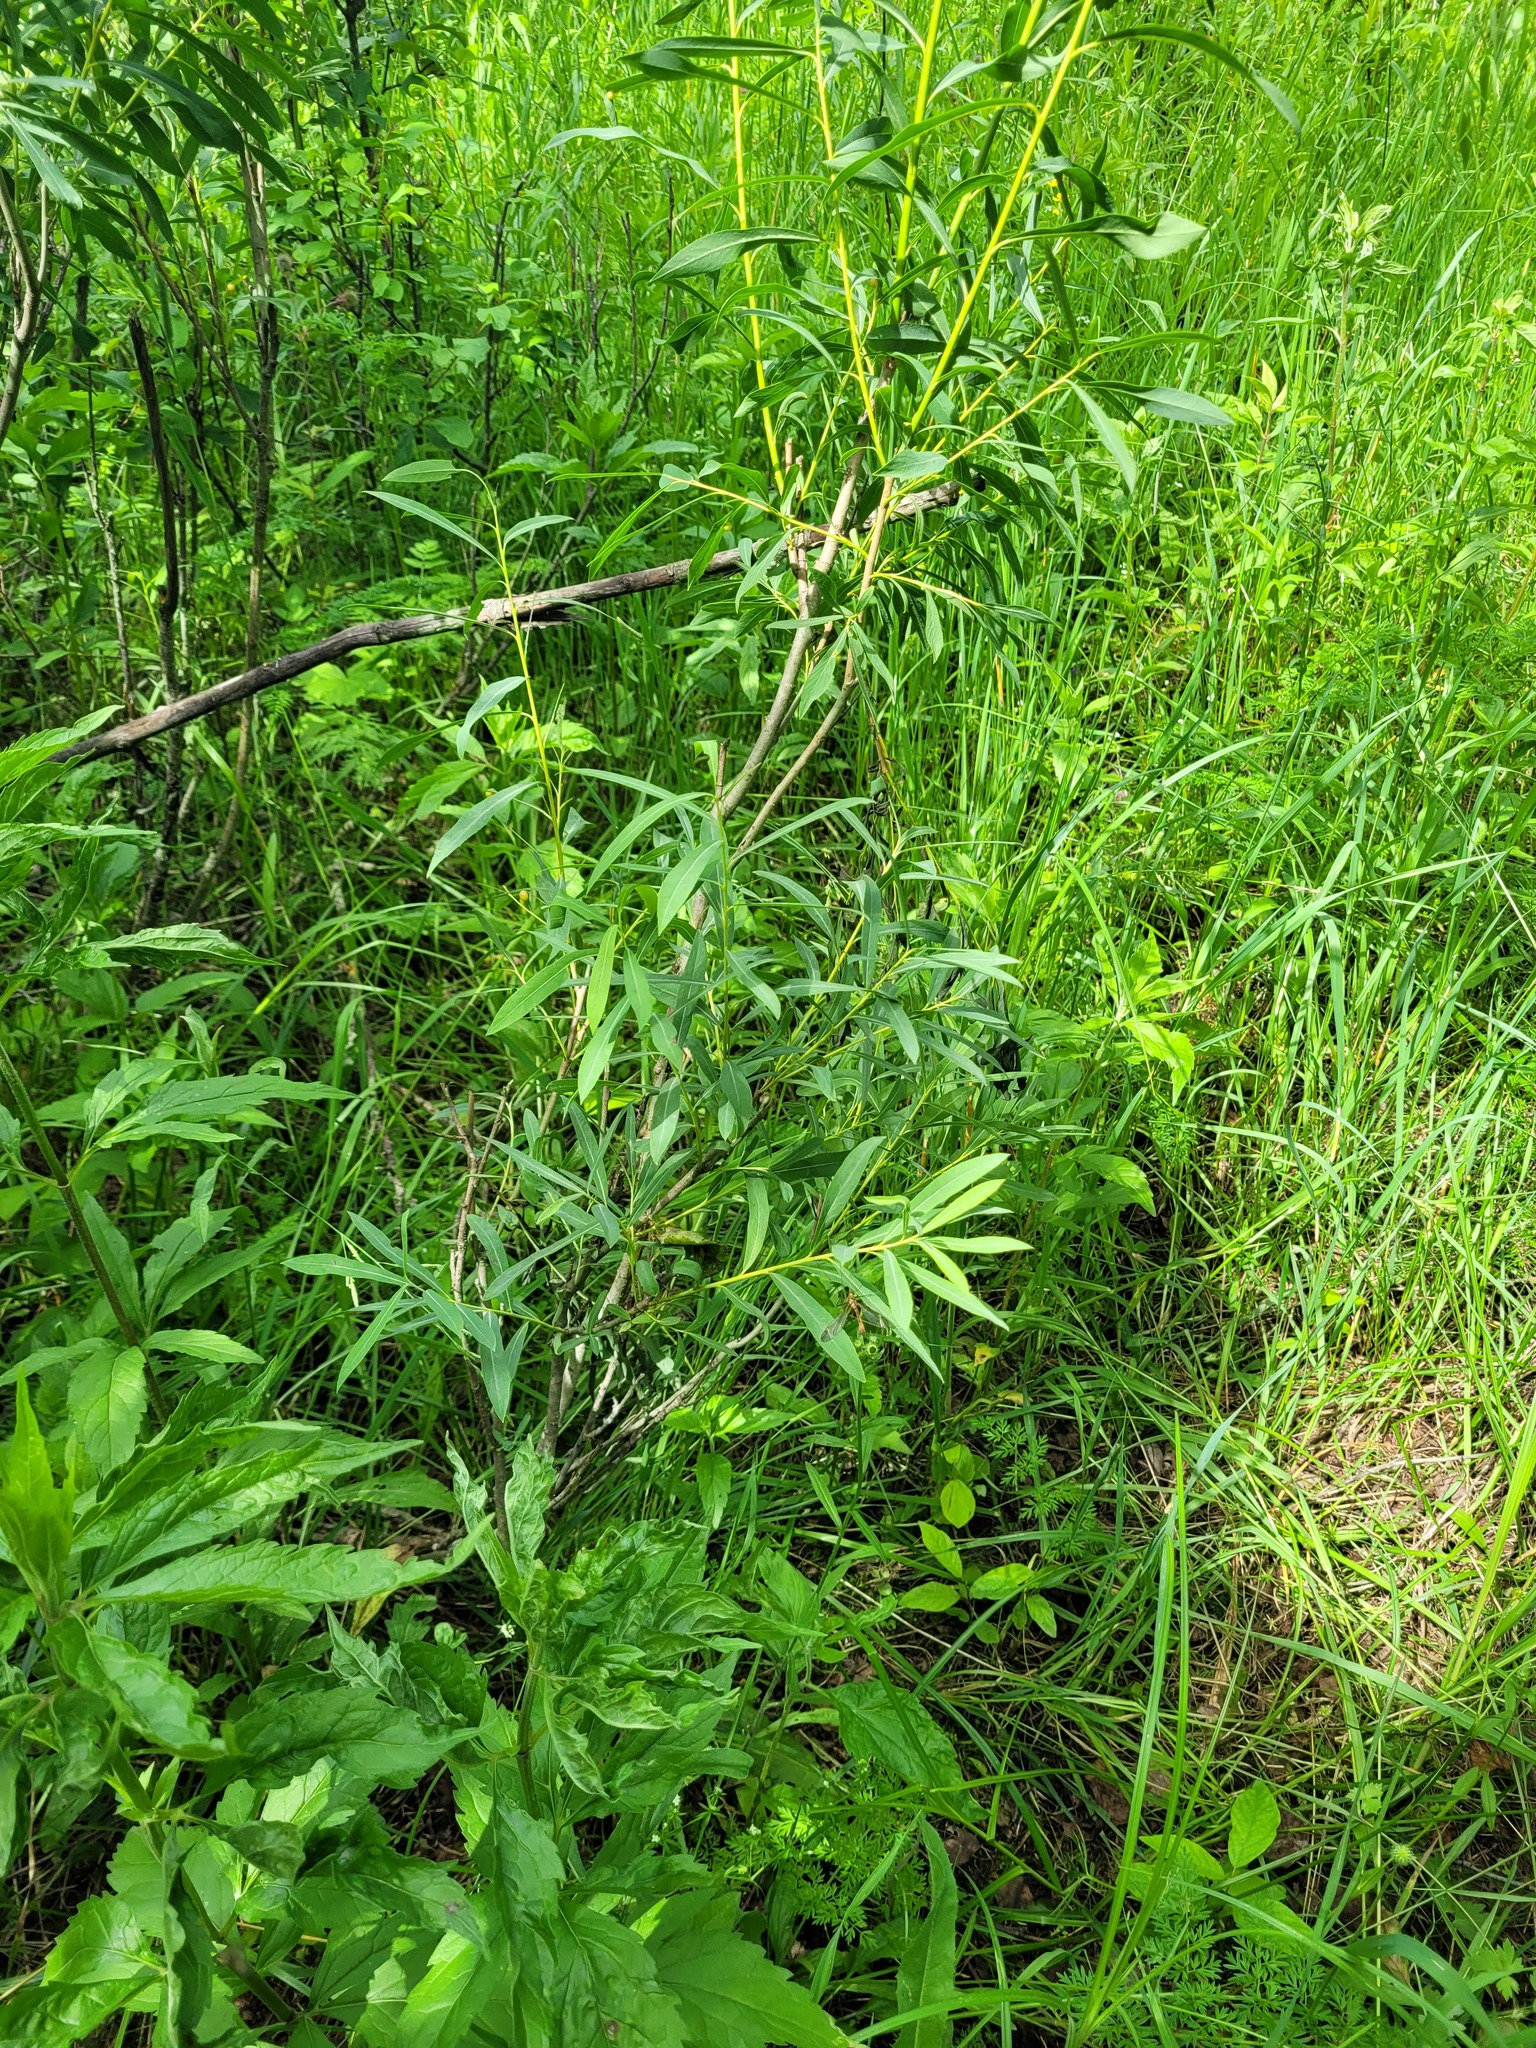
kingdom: Plantae
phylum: Tracheophyta
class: Magnoliopsida
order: Malpighiales
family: Salicaceae
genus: Salix
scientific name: Salix vinogradovii
